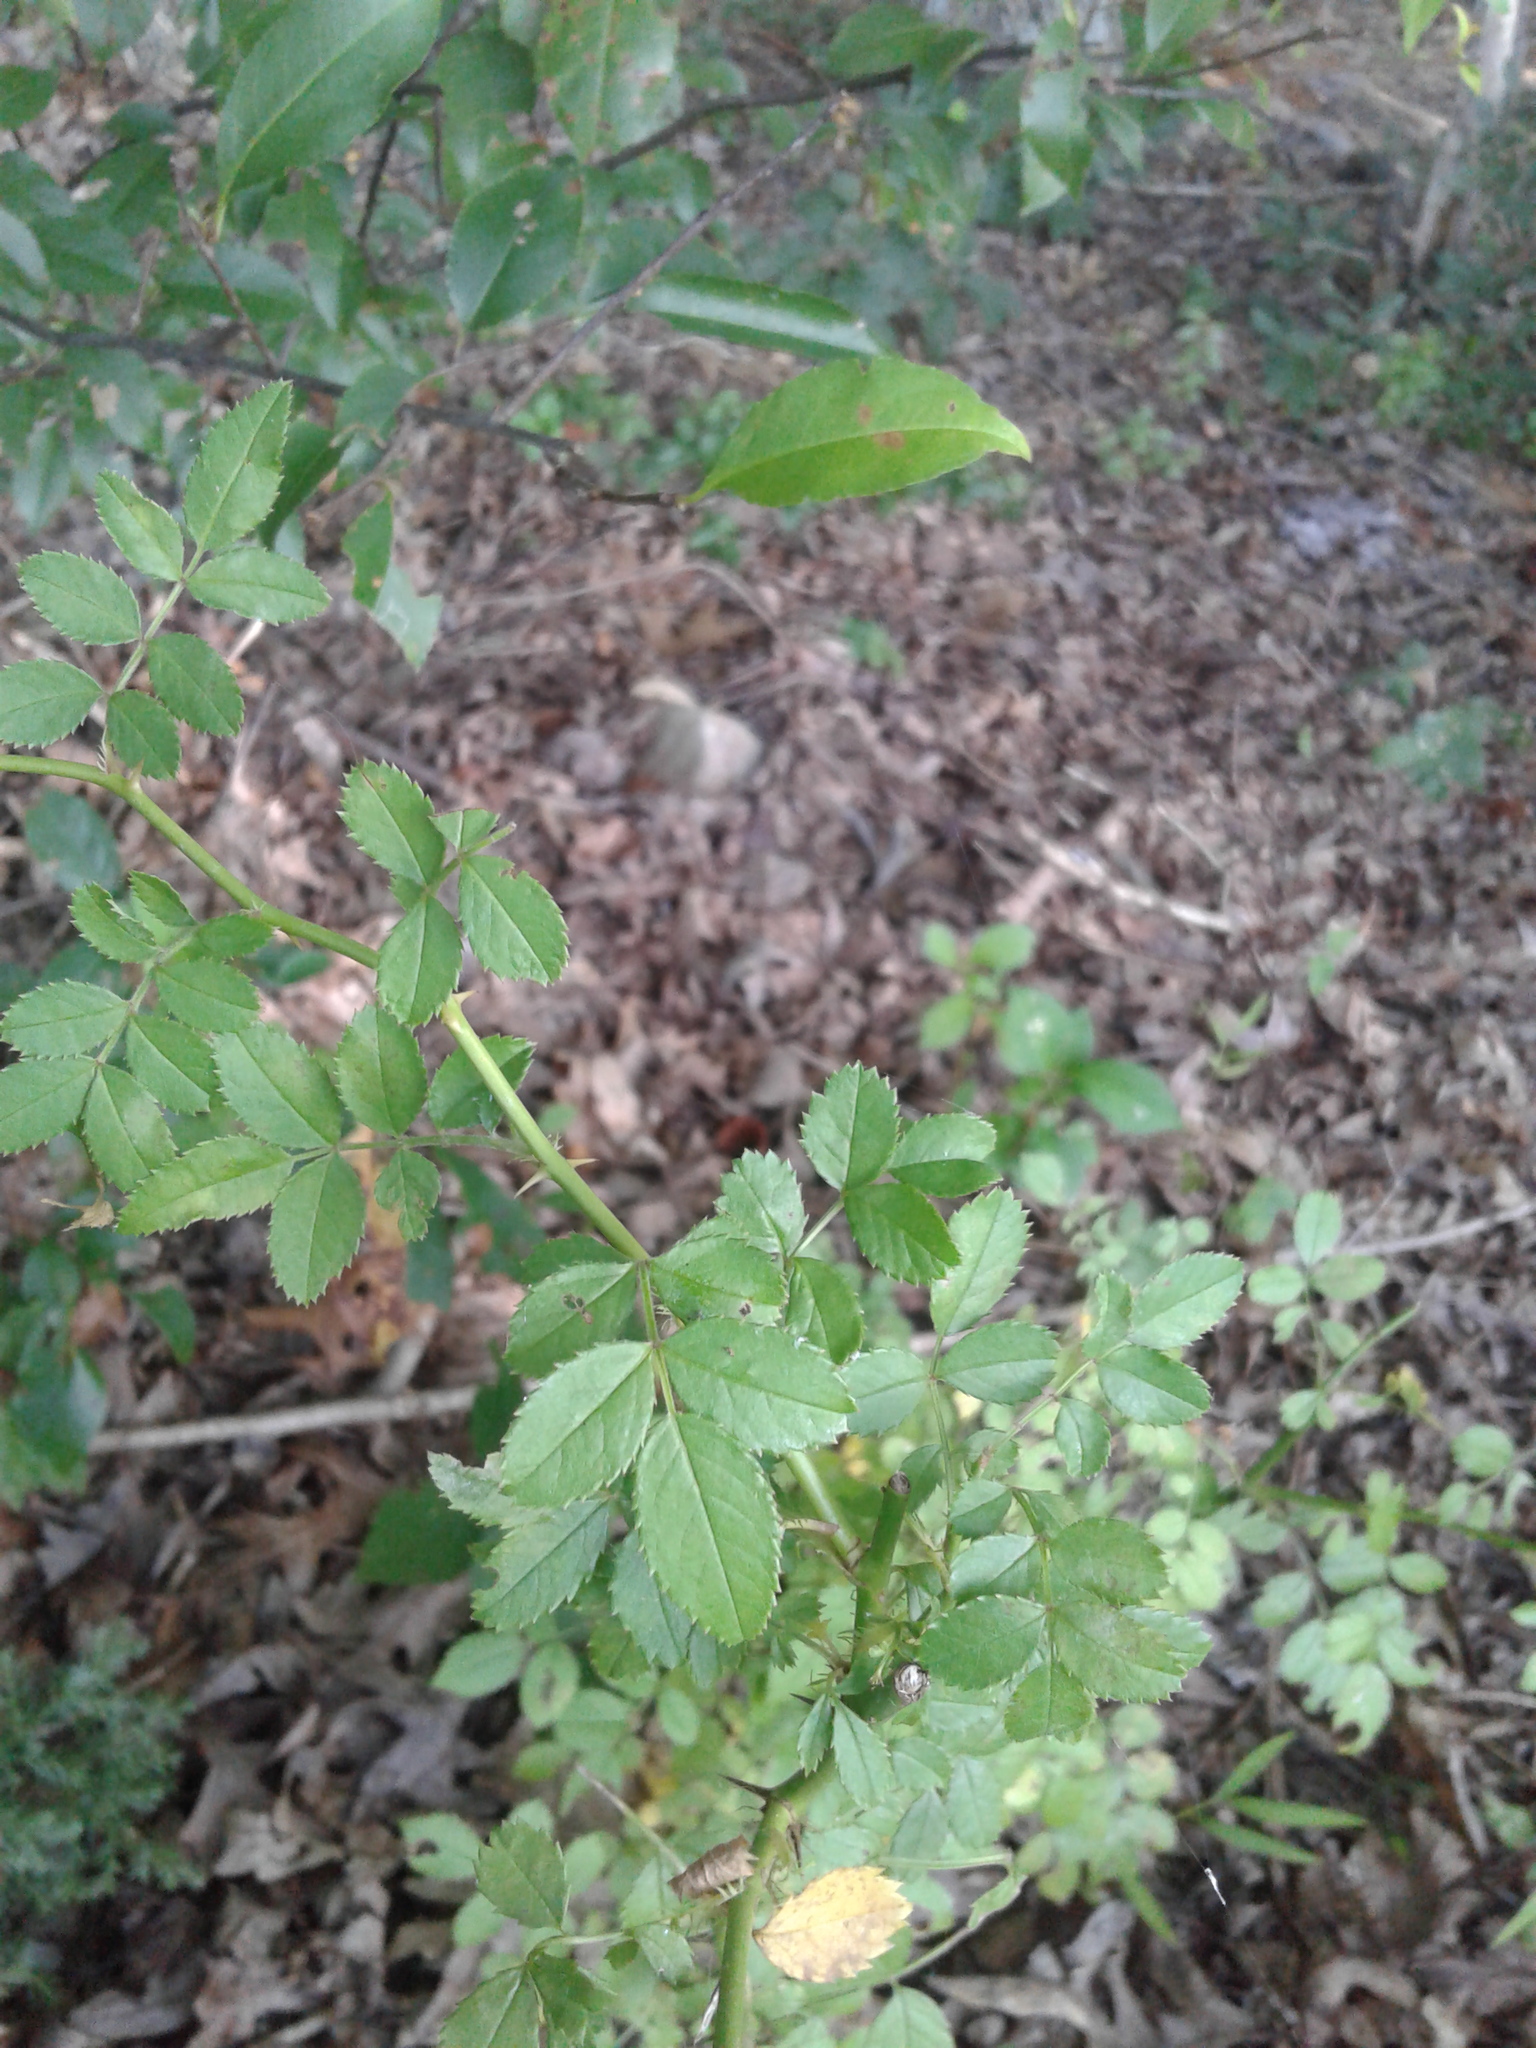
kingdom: Plantae
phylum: Tracheophyta
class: Magnoliopsida
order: Rosales
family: Rosaceae
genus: Rosa
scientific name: Rosa multiflora
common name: Multiflora rose
